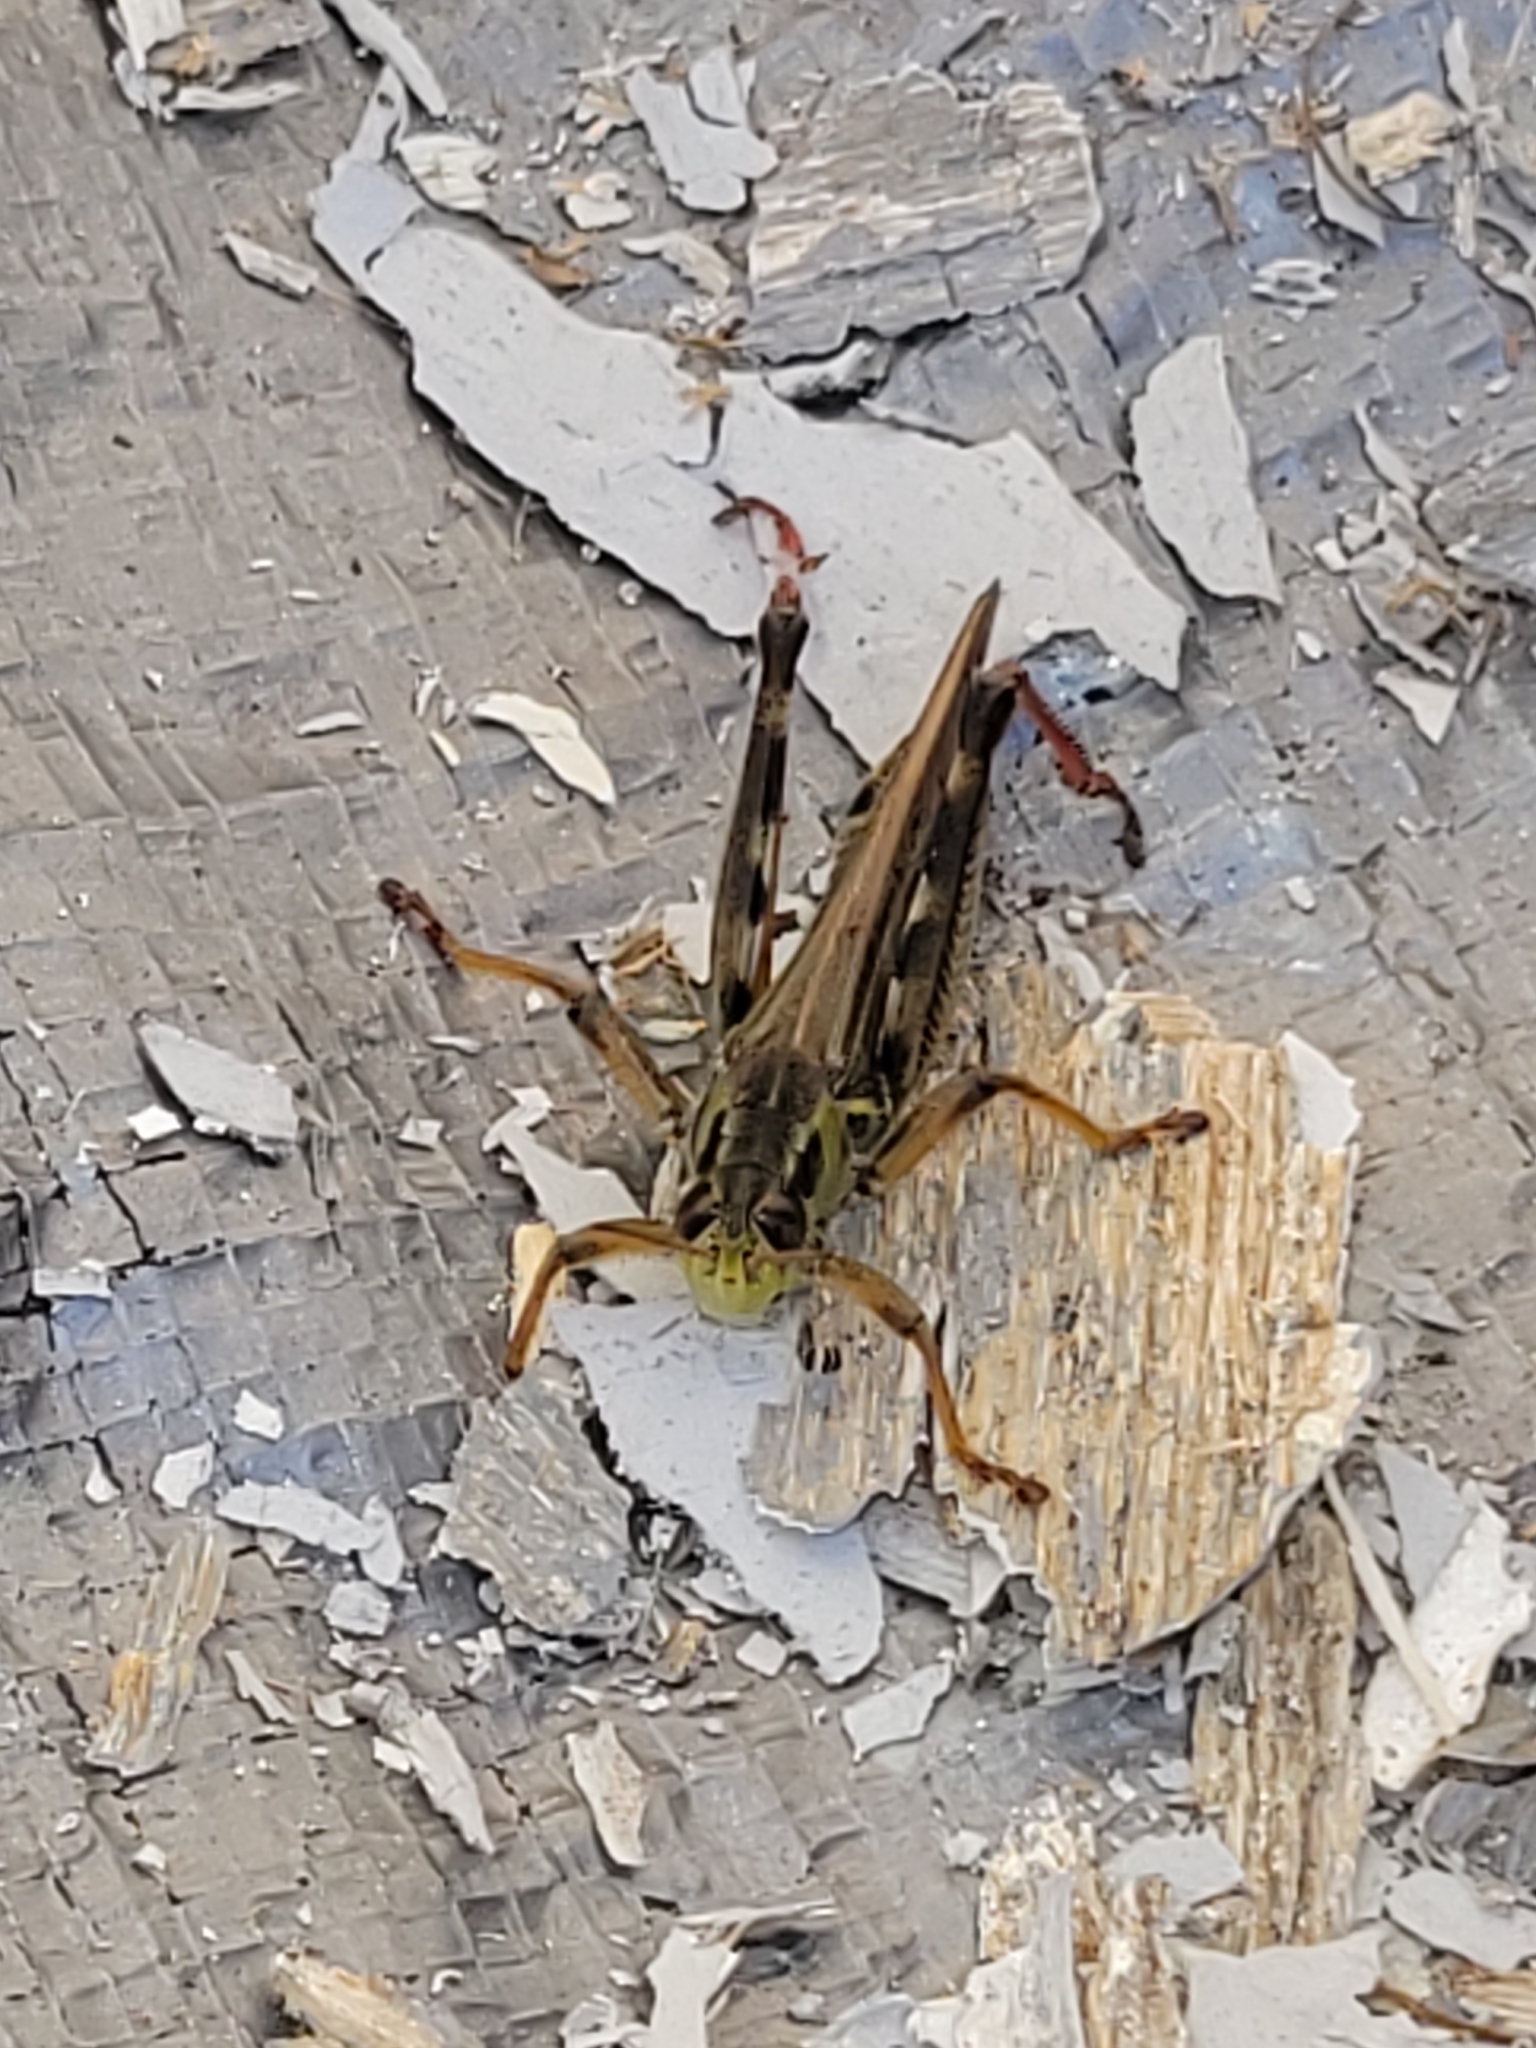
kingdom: Animalia
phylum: Arthropoda
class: Insecta
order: Orthoptera
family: Acrididae
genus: Melanoplus
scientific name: Melanoplus femurrubrum
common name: Red-legged grasshopper
